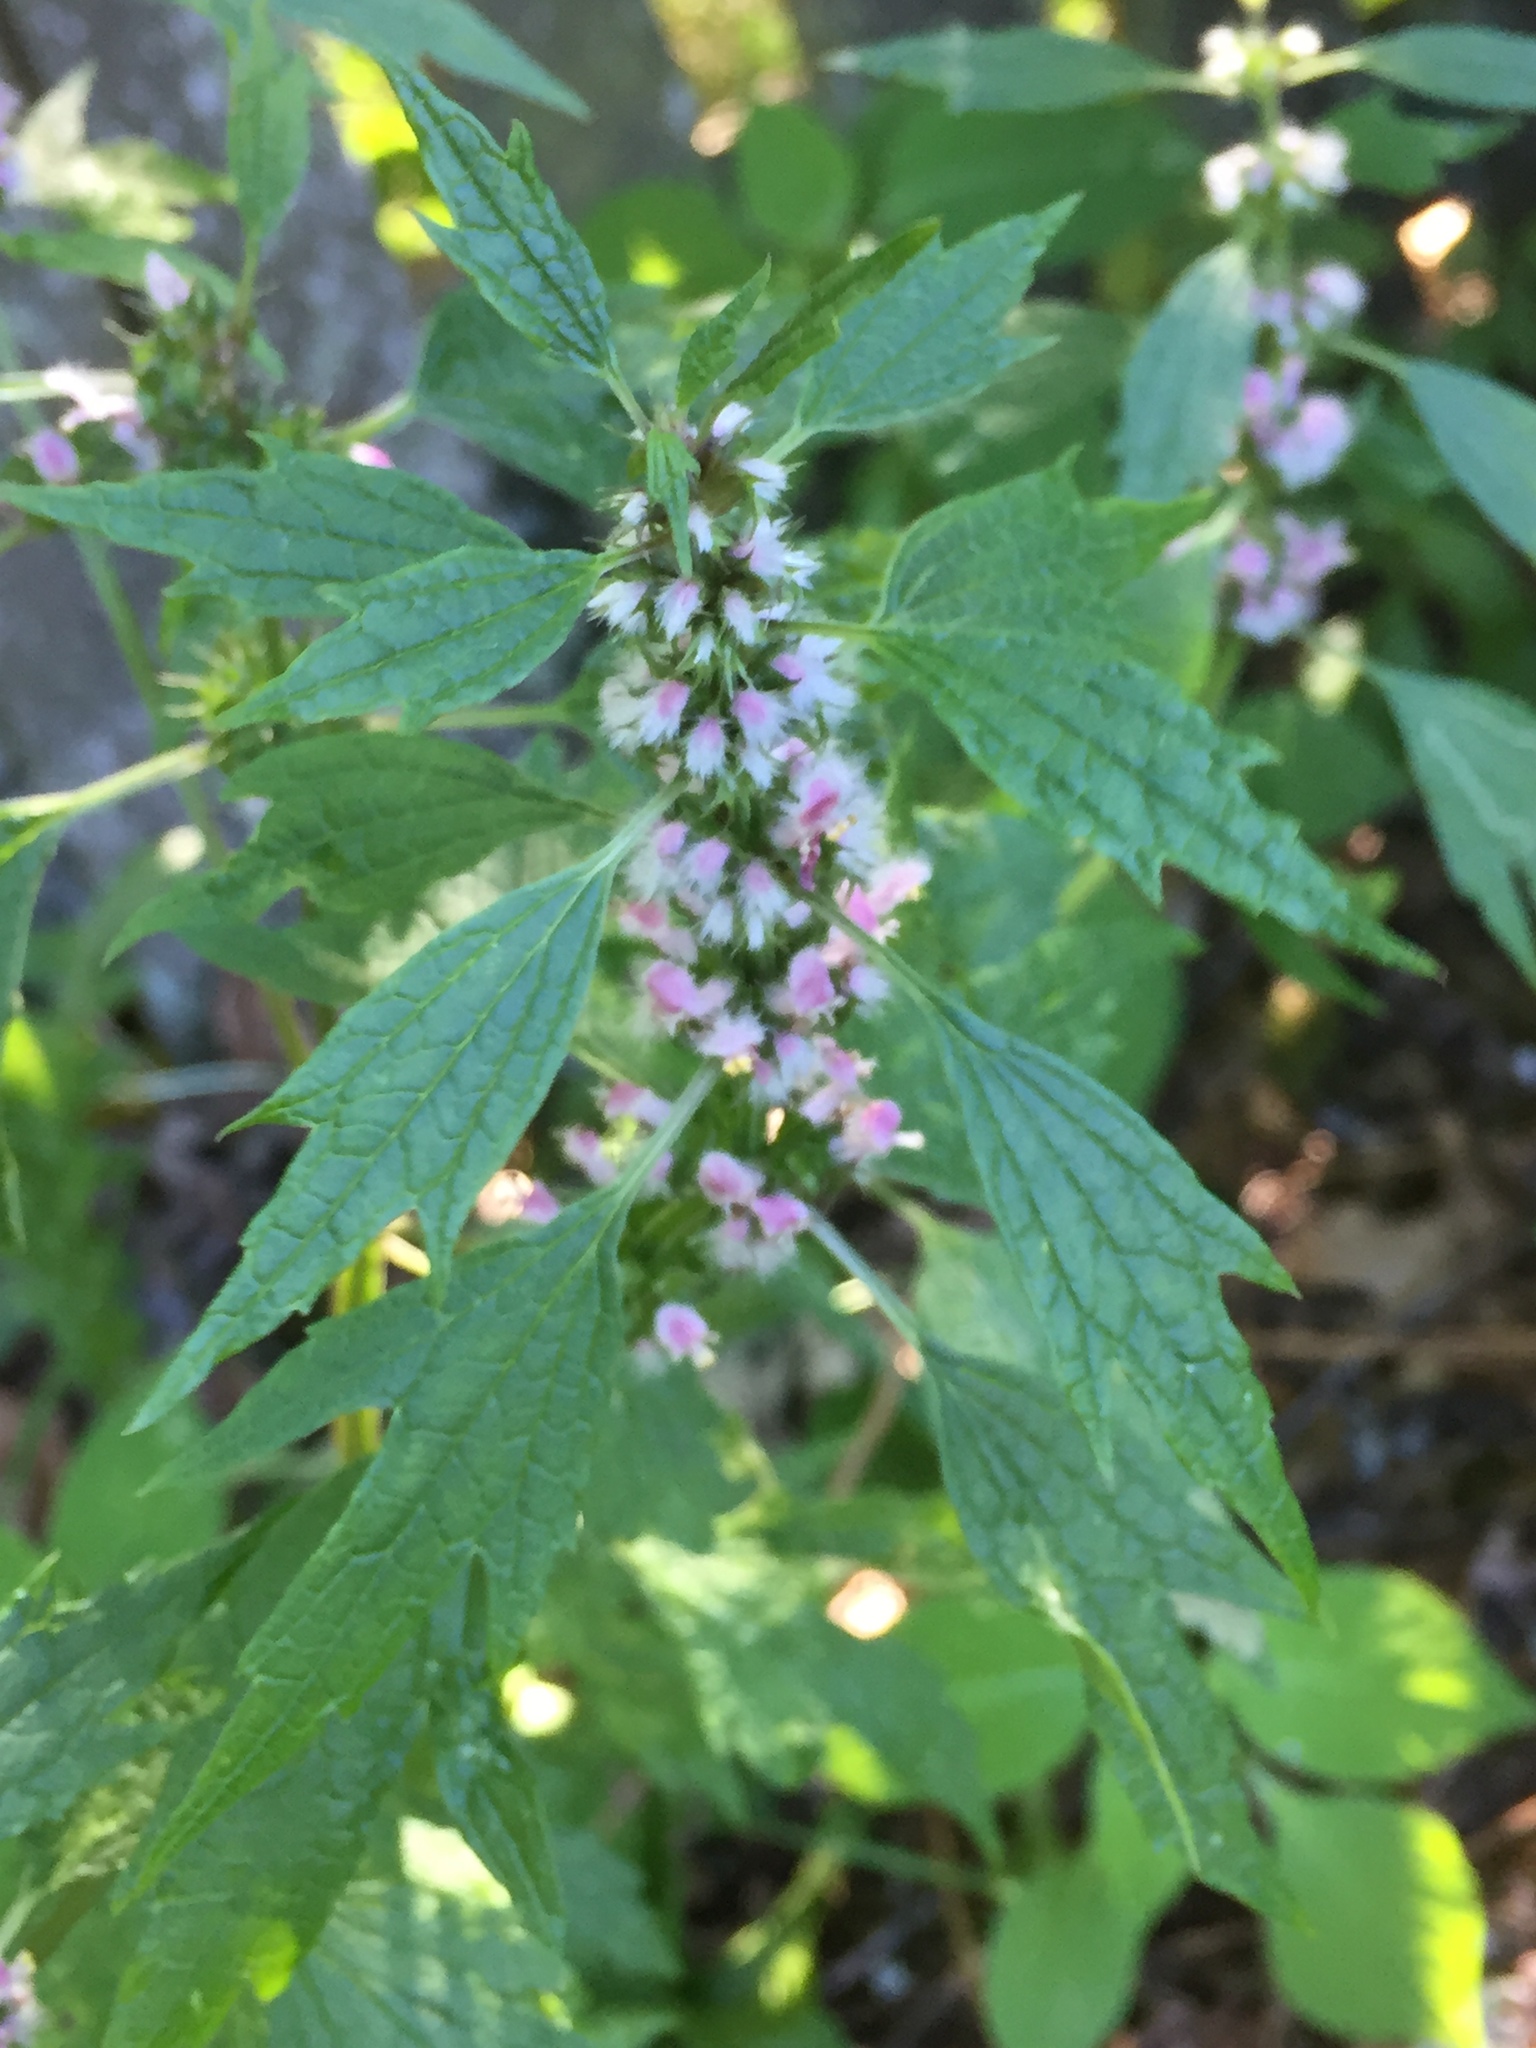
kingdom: Plantae
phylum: Tracheophyta
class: Magnoliopsida
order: Lamiales
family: Lamiaceae
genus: Leonurus
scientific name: Leonurus cardiaca
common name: Motherwort
